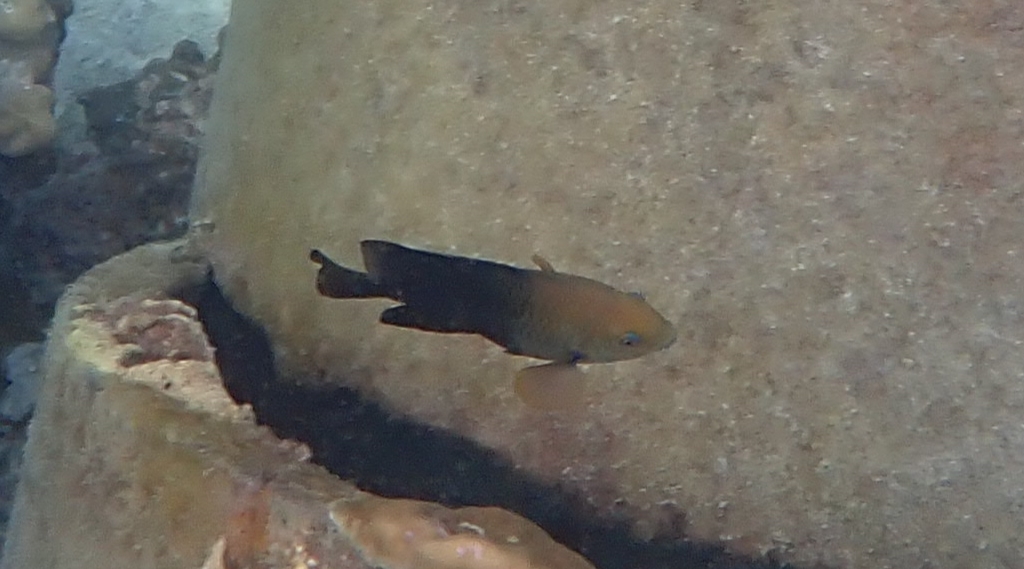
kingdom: Animalia
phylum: Chordata
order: Perciformes
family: Pomacentridae
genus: Hemiglyphidodon
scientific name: Hemiglyphidodon plagiometopon
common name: Lagoon damsel
